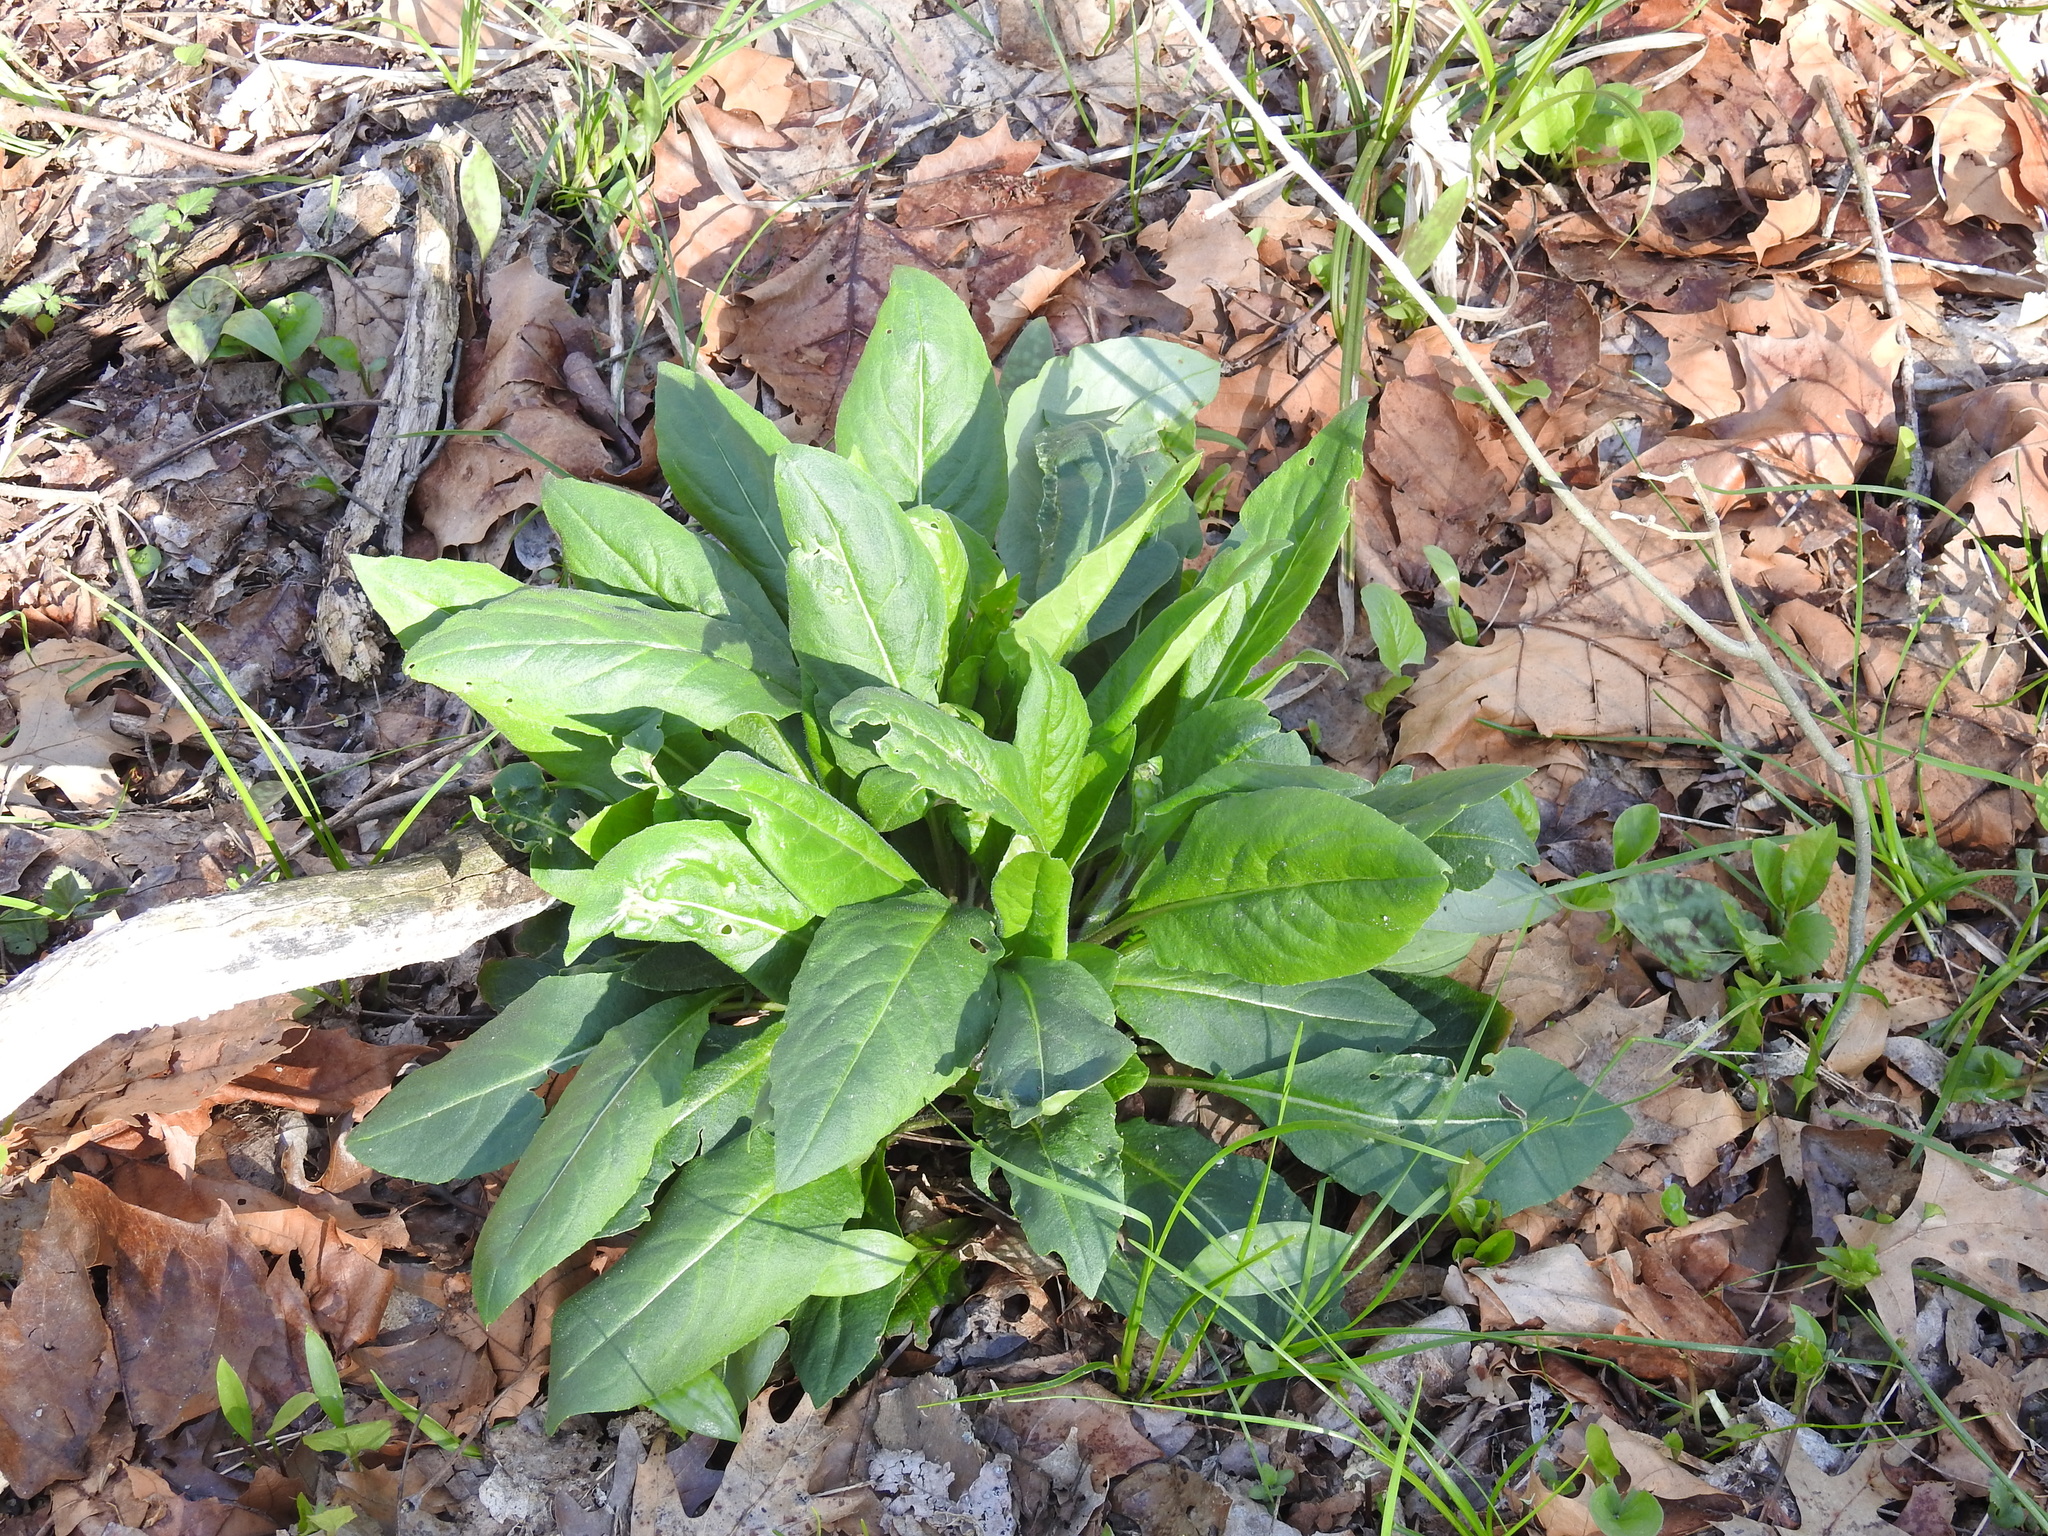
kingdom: Plantae
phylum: Tracheophyta
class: Magnoliopsida
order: Brassicales
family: Brassicaceae
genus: Hesperis
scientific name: Hesperis matronalis
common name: Dame's-violet
